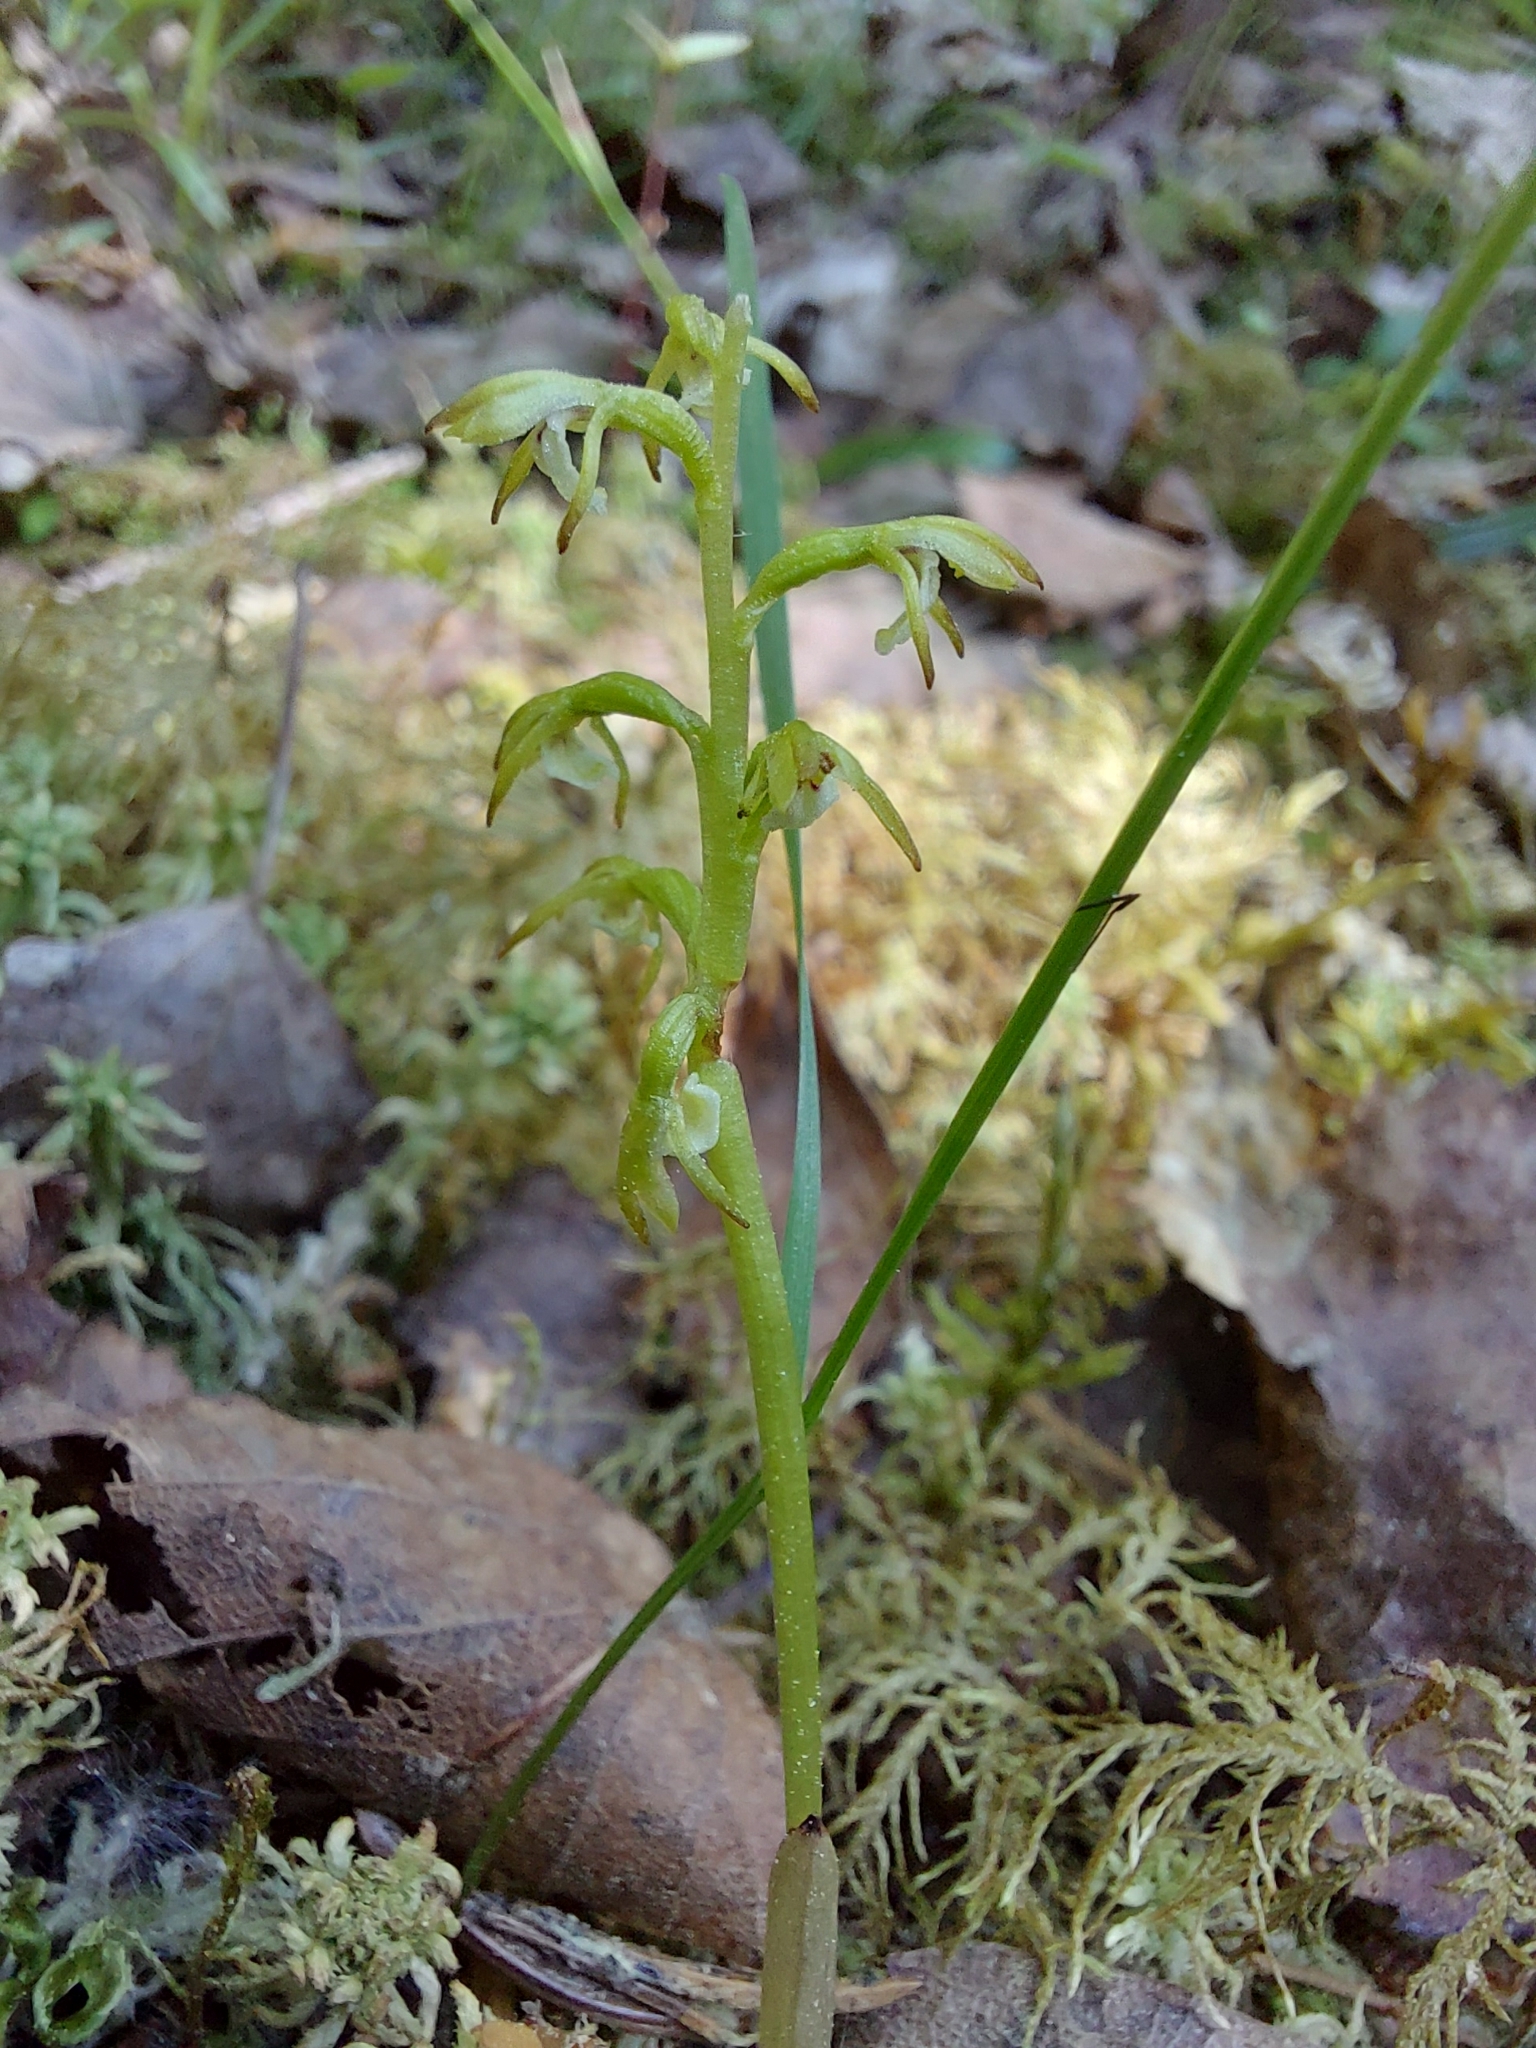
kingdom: Plantae
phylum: Tracheophyta
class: Liliopsida
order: Asparagales
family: Orchidaceae
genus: Corallorhiza
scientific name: Corallorhiza trifida
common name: Yellow coralroot
